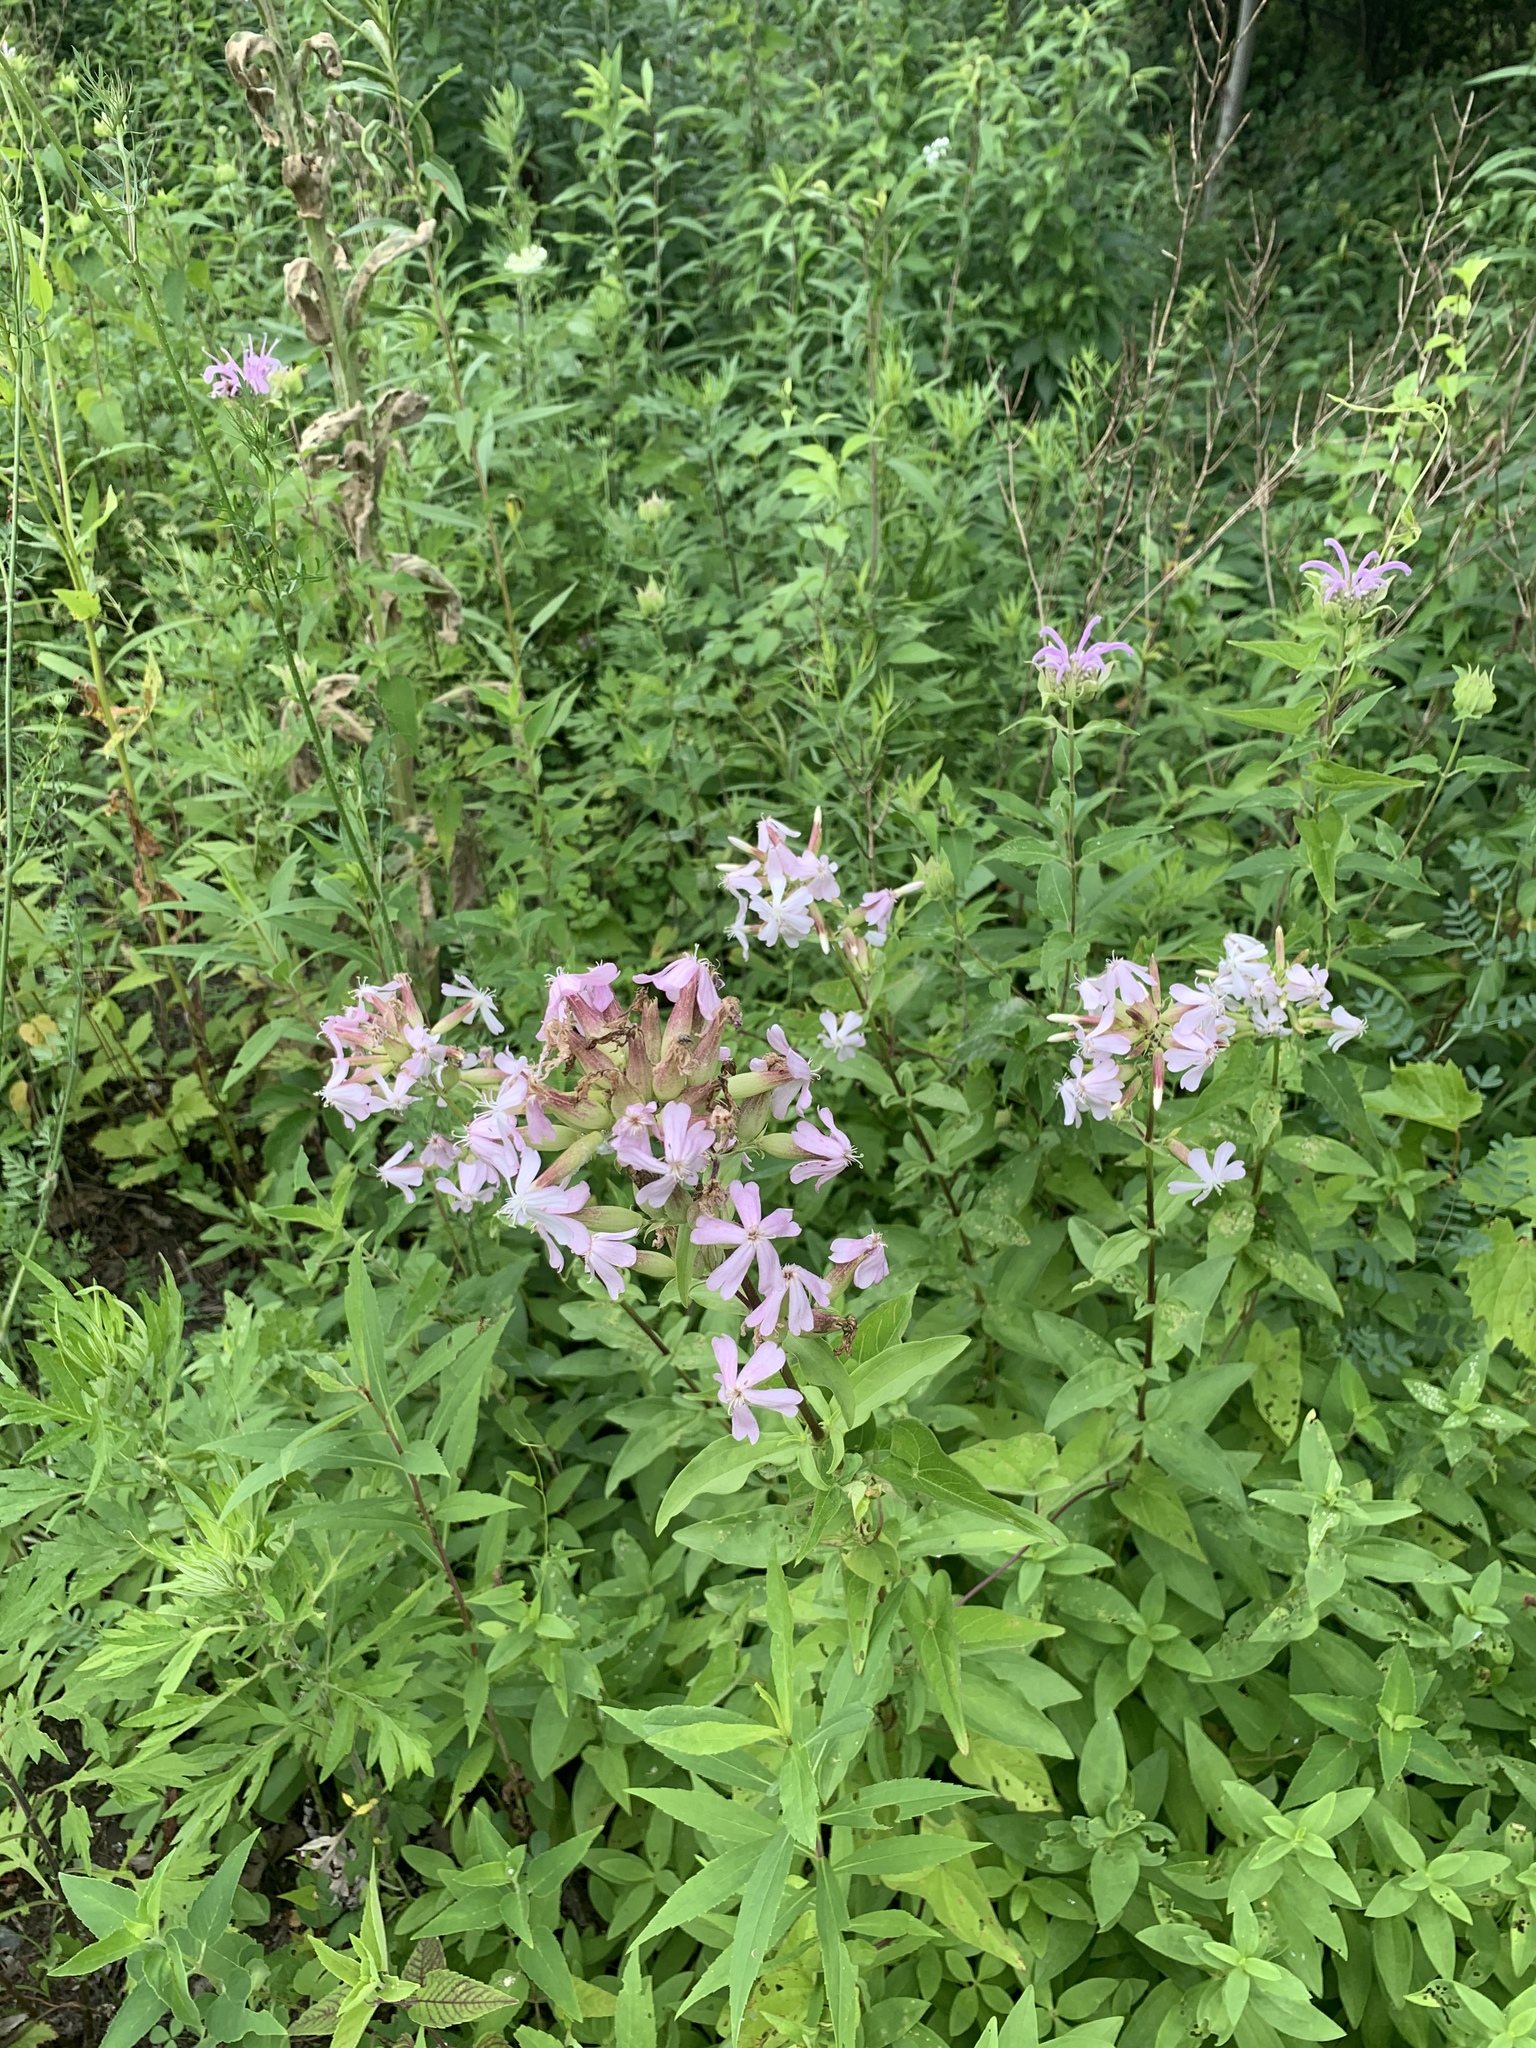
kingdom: Plantae
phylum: Tracheophyta
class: Magnoliopsida
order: Caryophyllales
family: Caryophyllaceae
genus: Saponaria
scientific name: Saponaria officinalis
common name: Soapwort
